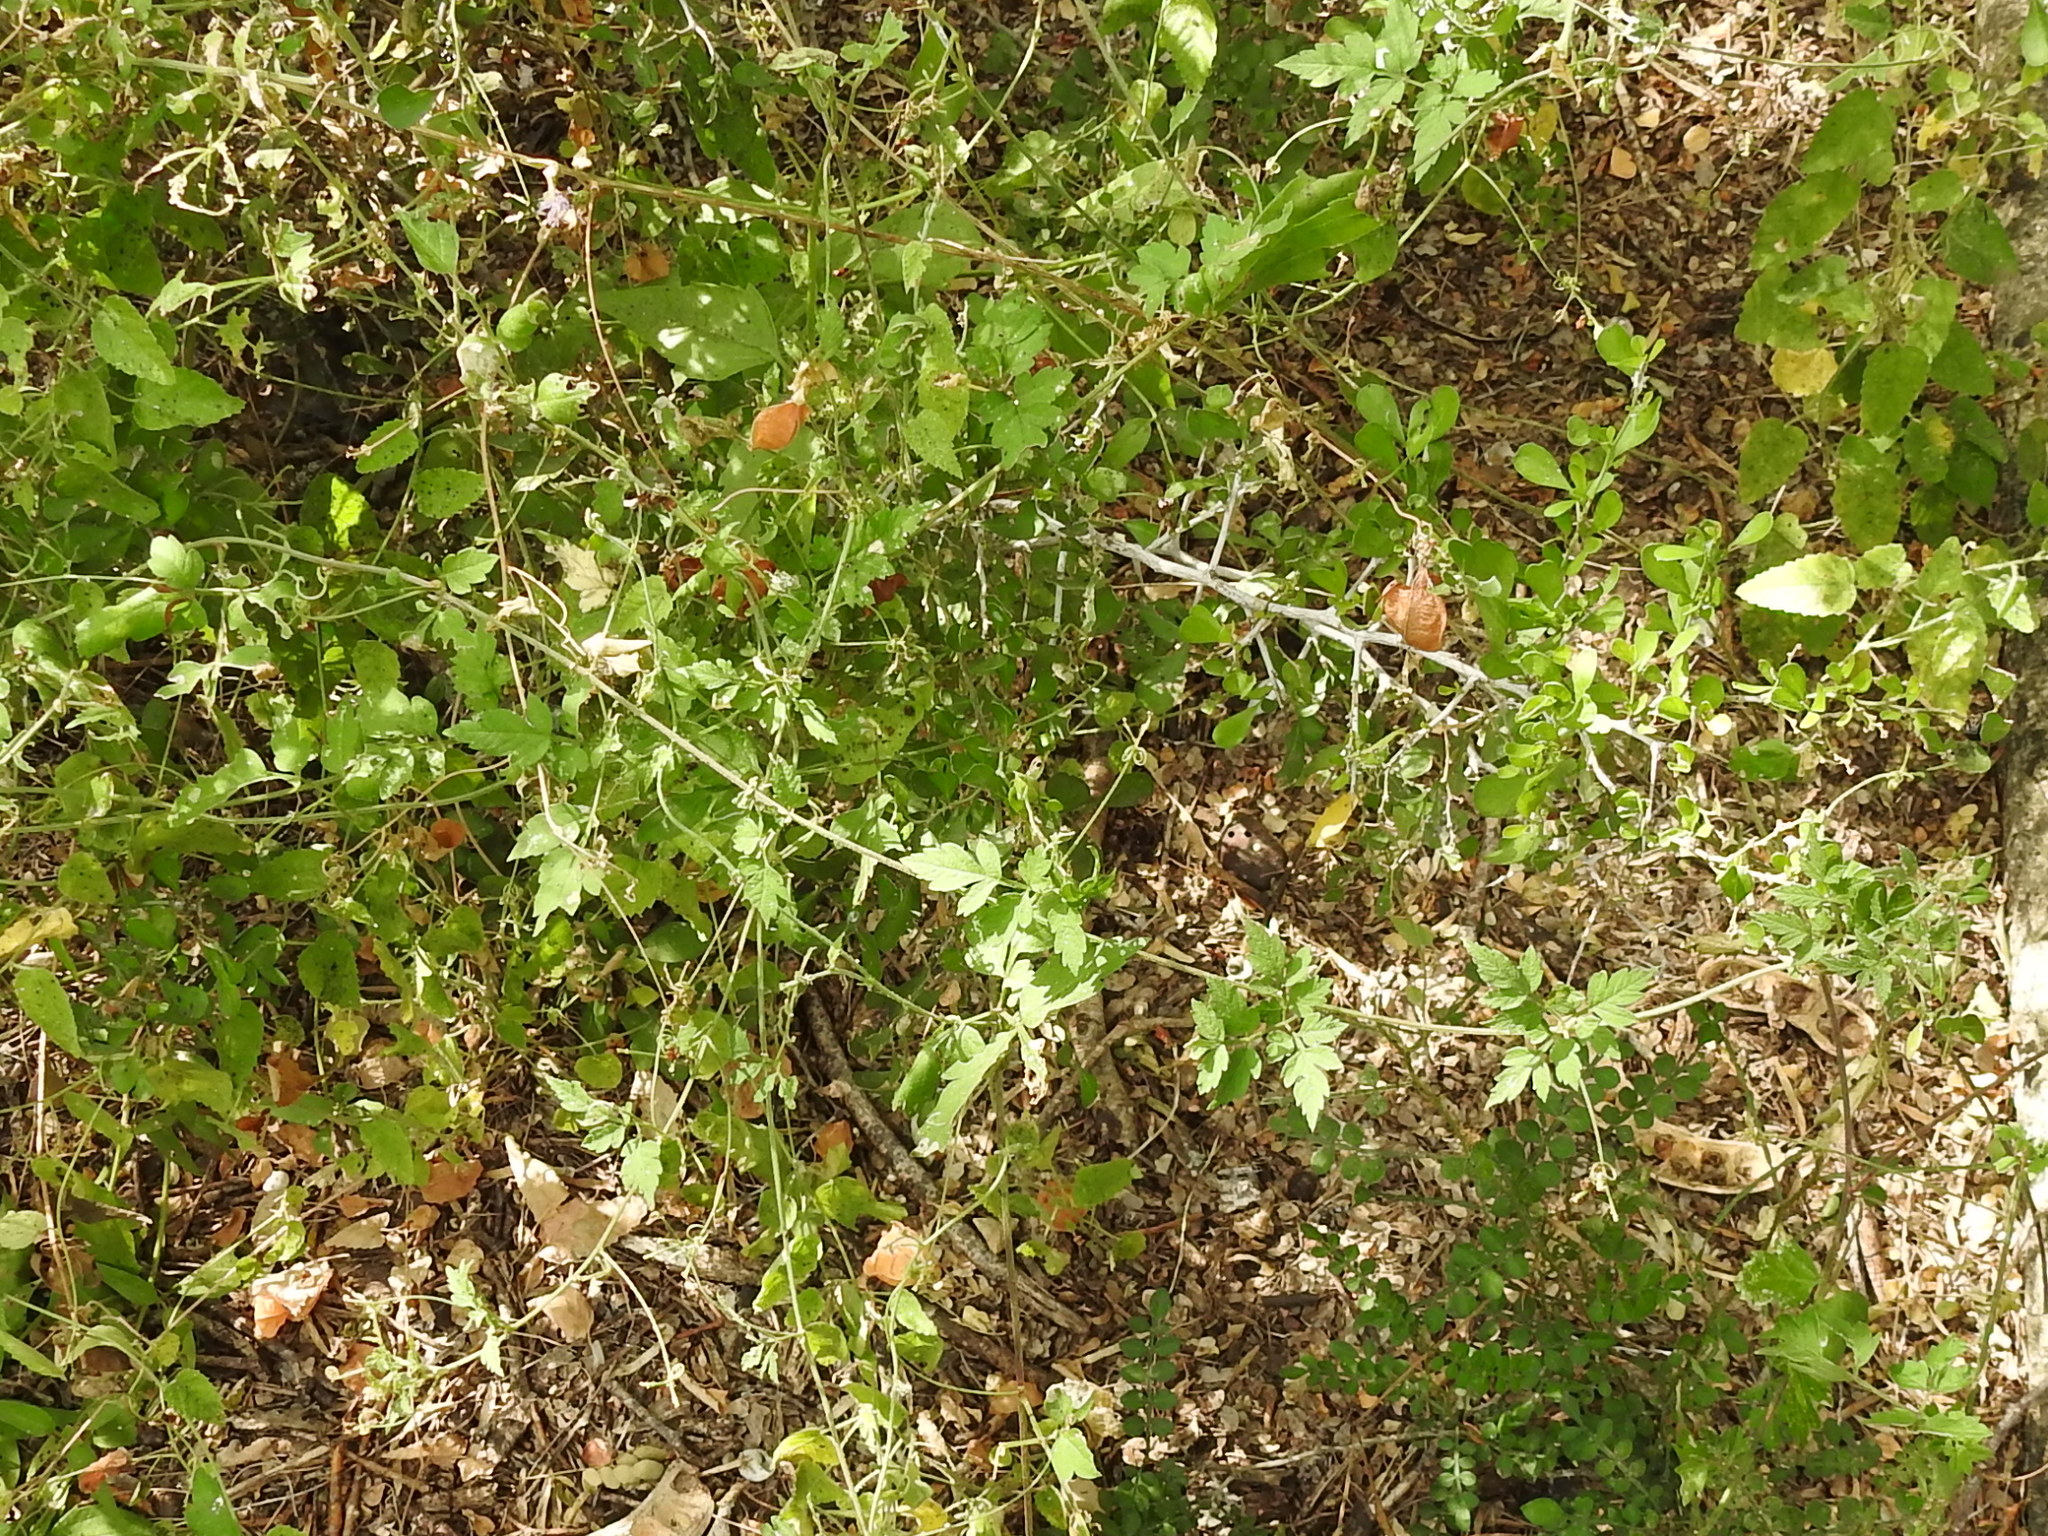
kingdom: Plantae
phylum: Tracheophyta
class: Magnoliopsida
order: Sapindales
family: Sapindaceae
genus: Cardiospermum
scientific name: Cardiospermum halicacabum
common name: Balloon vine
